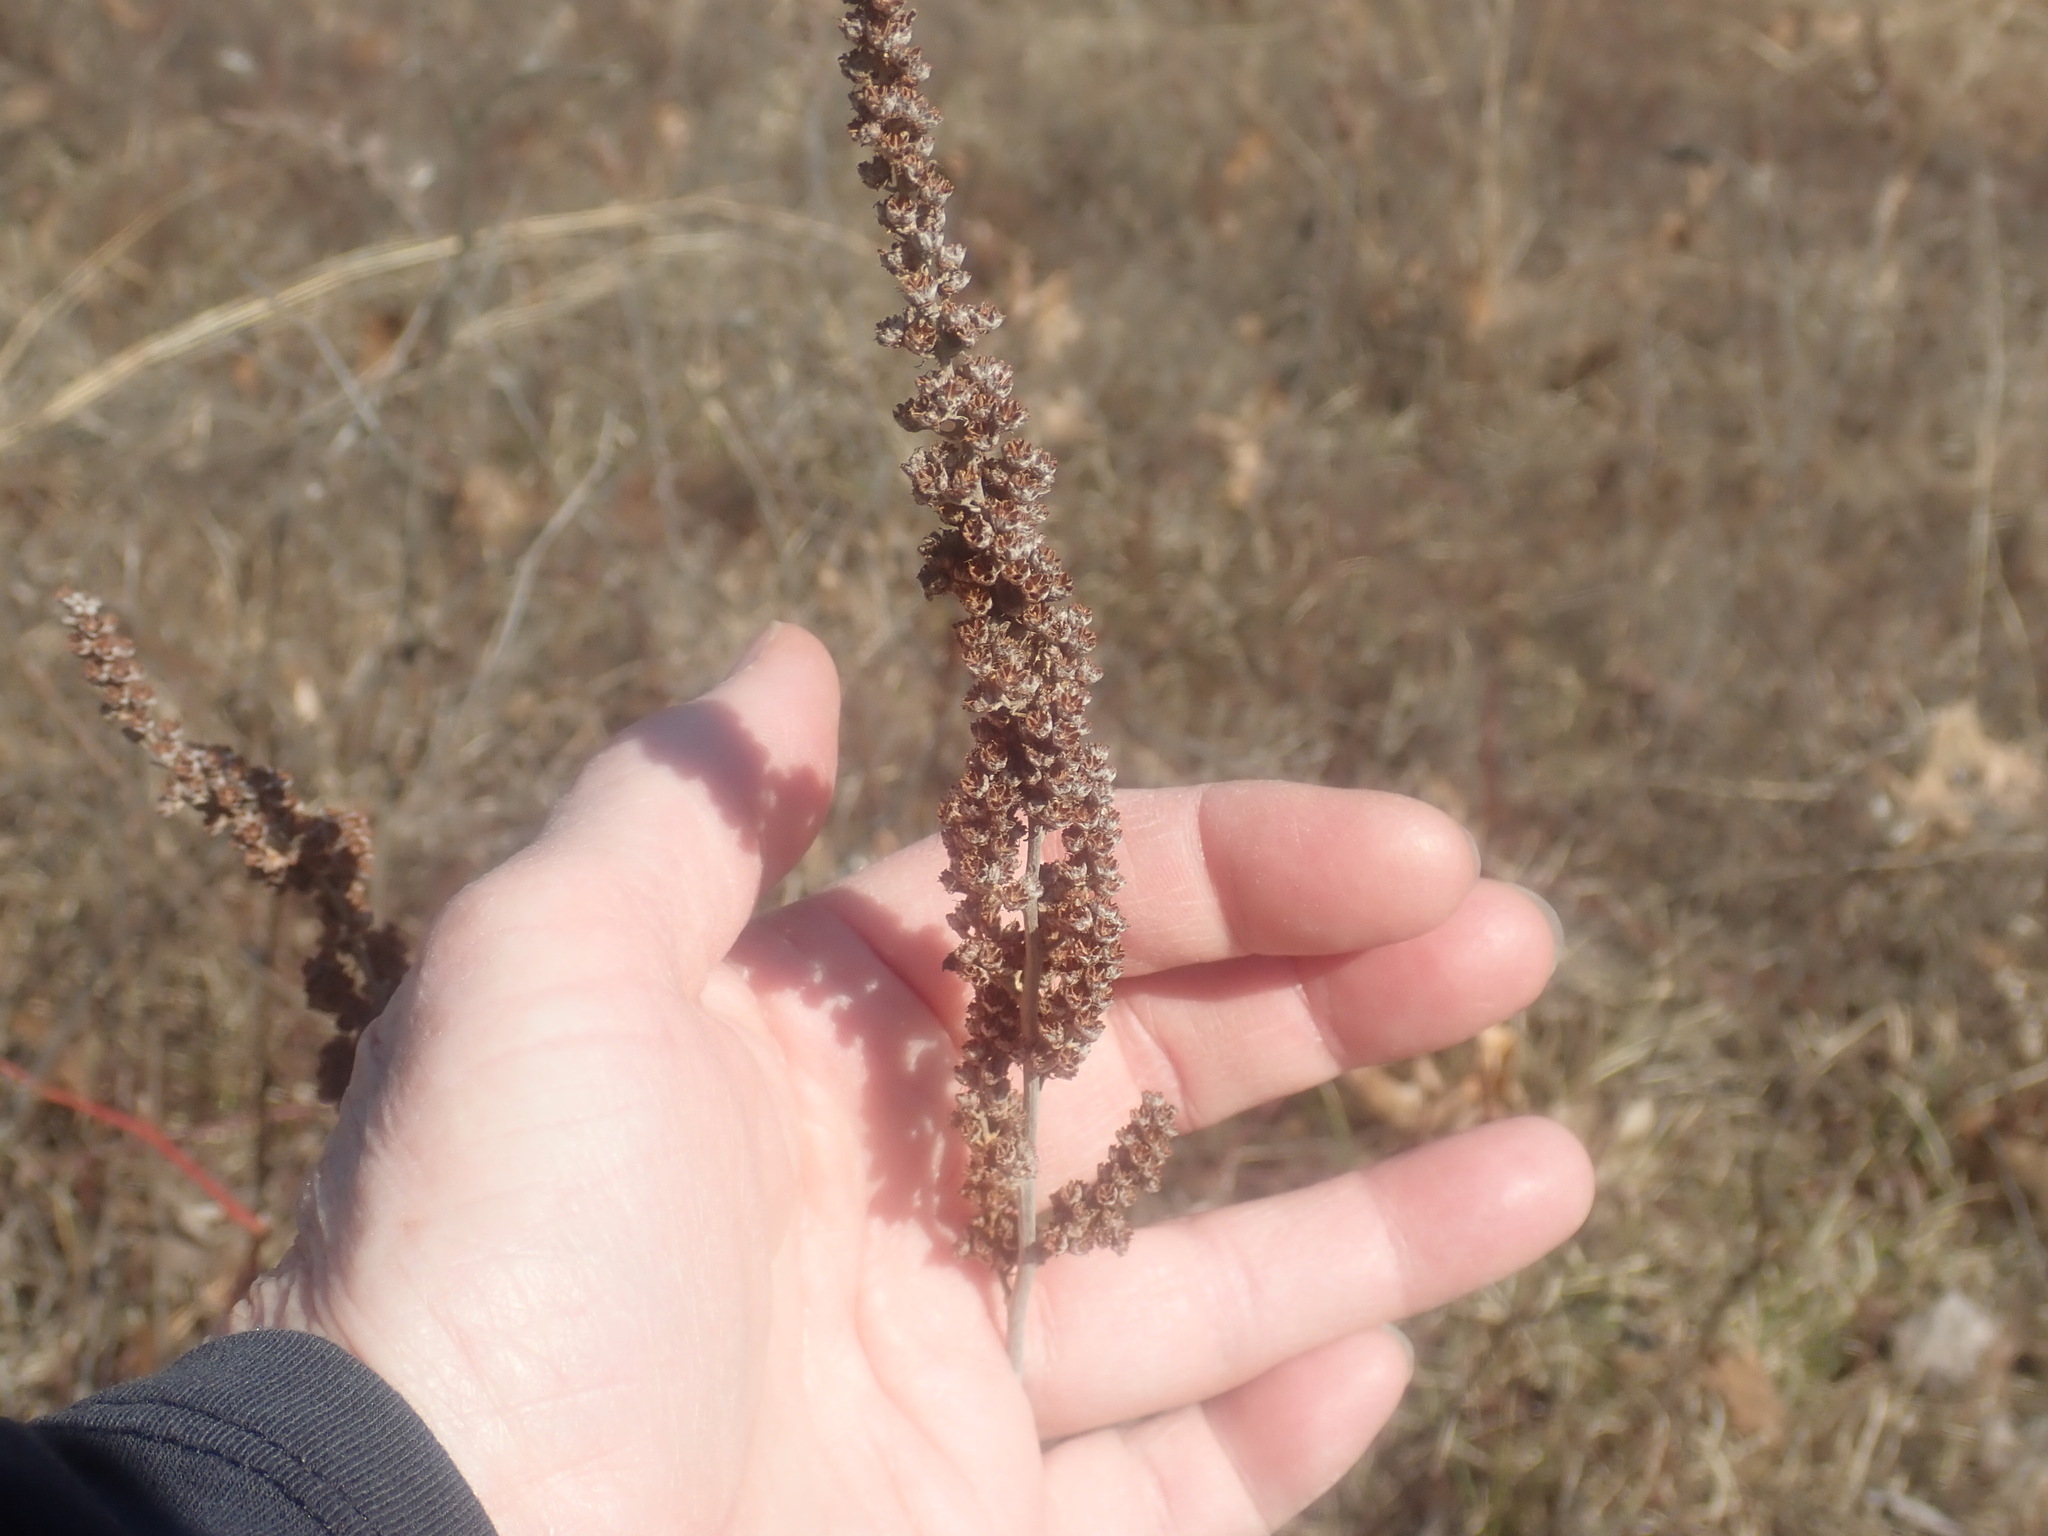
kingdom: Plantae
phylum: Tracheophyta
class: Magnoliopsida
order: Rosales
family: Rosaceae
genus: Spiraea
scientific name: Spiraea tomentosa
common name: Hardhack
